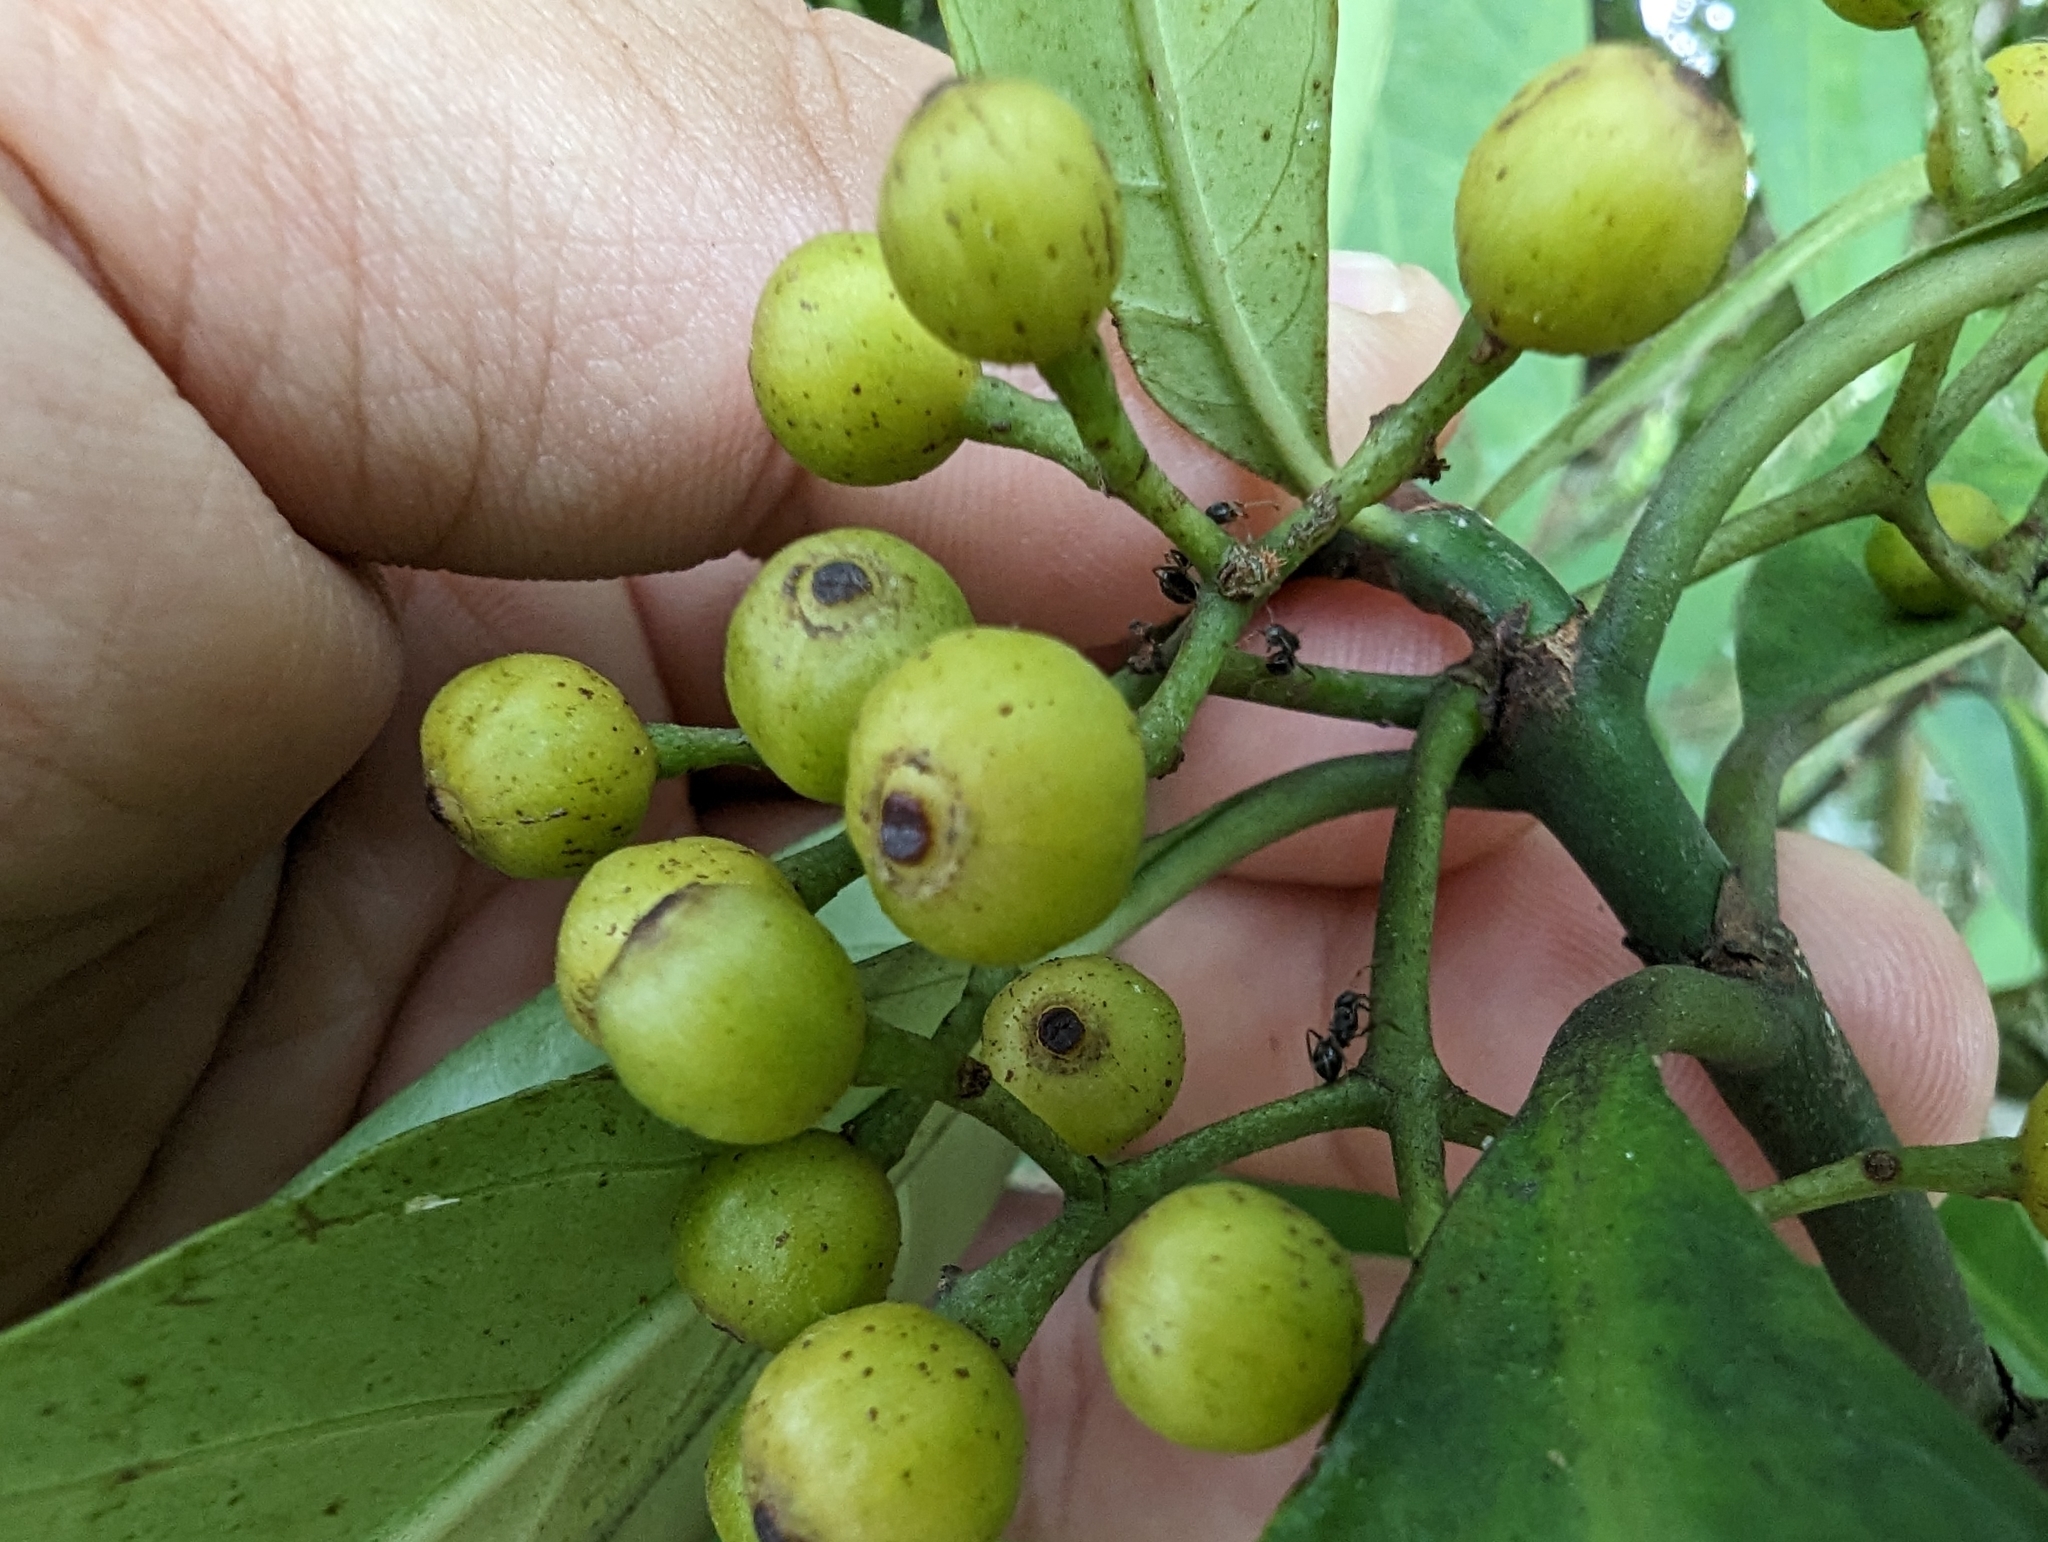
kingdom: Plantae
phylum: Tracheophyta
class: Magnoliopsida
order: Gentianales
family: Rubiaceae
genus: Psychotria
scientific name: Psychotria asiatica
